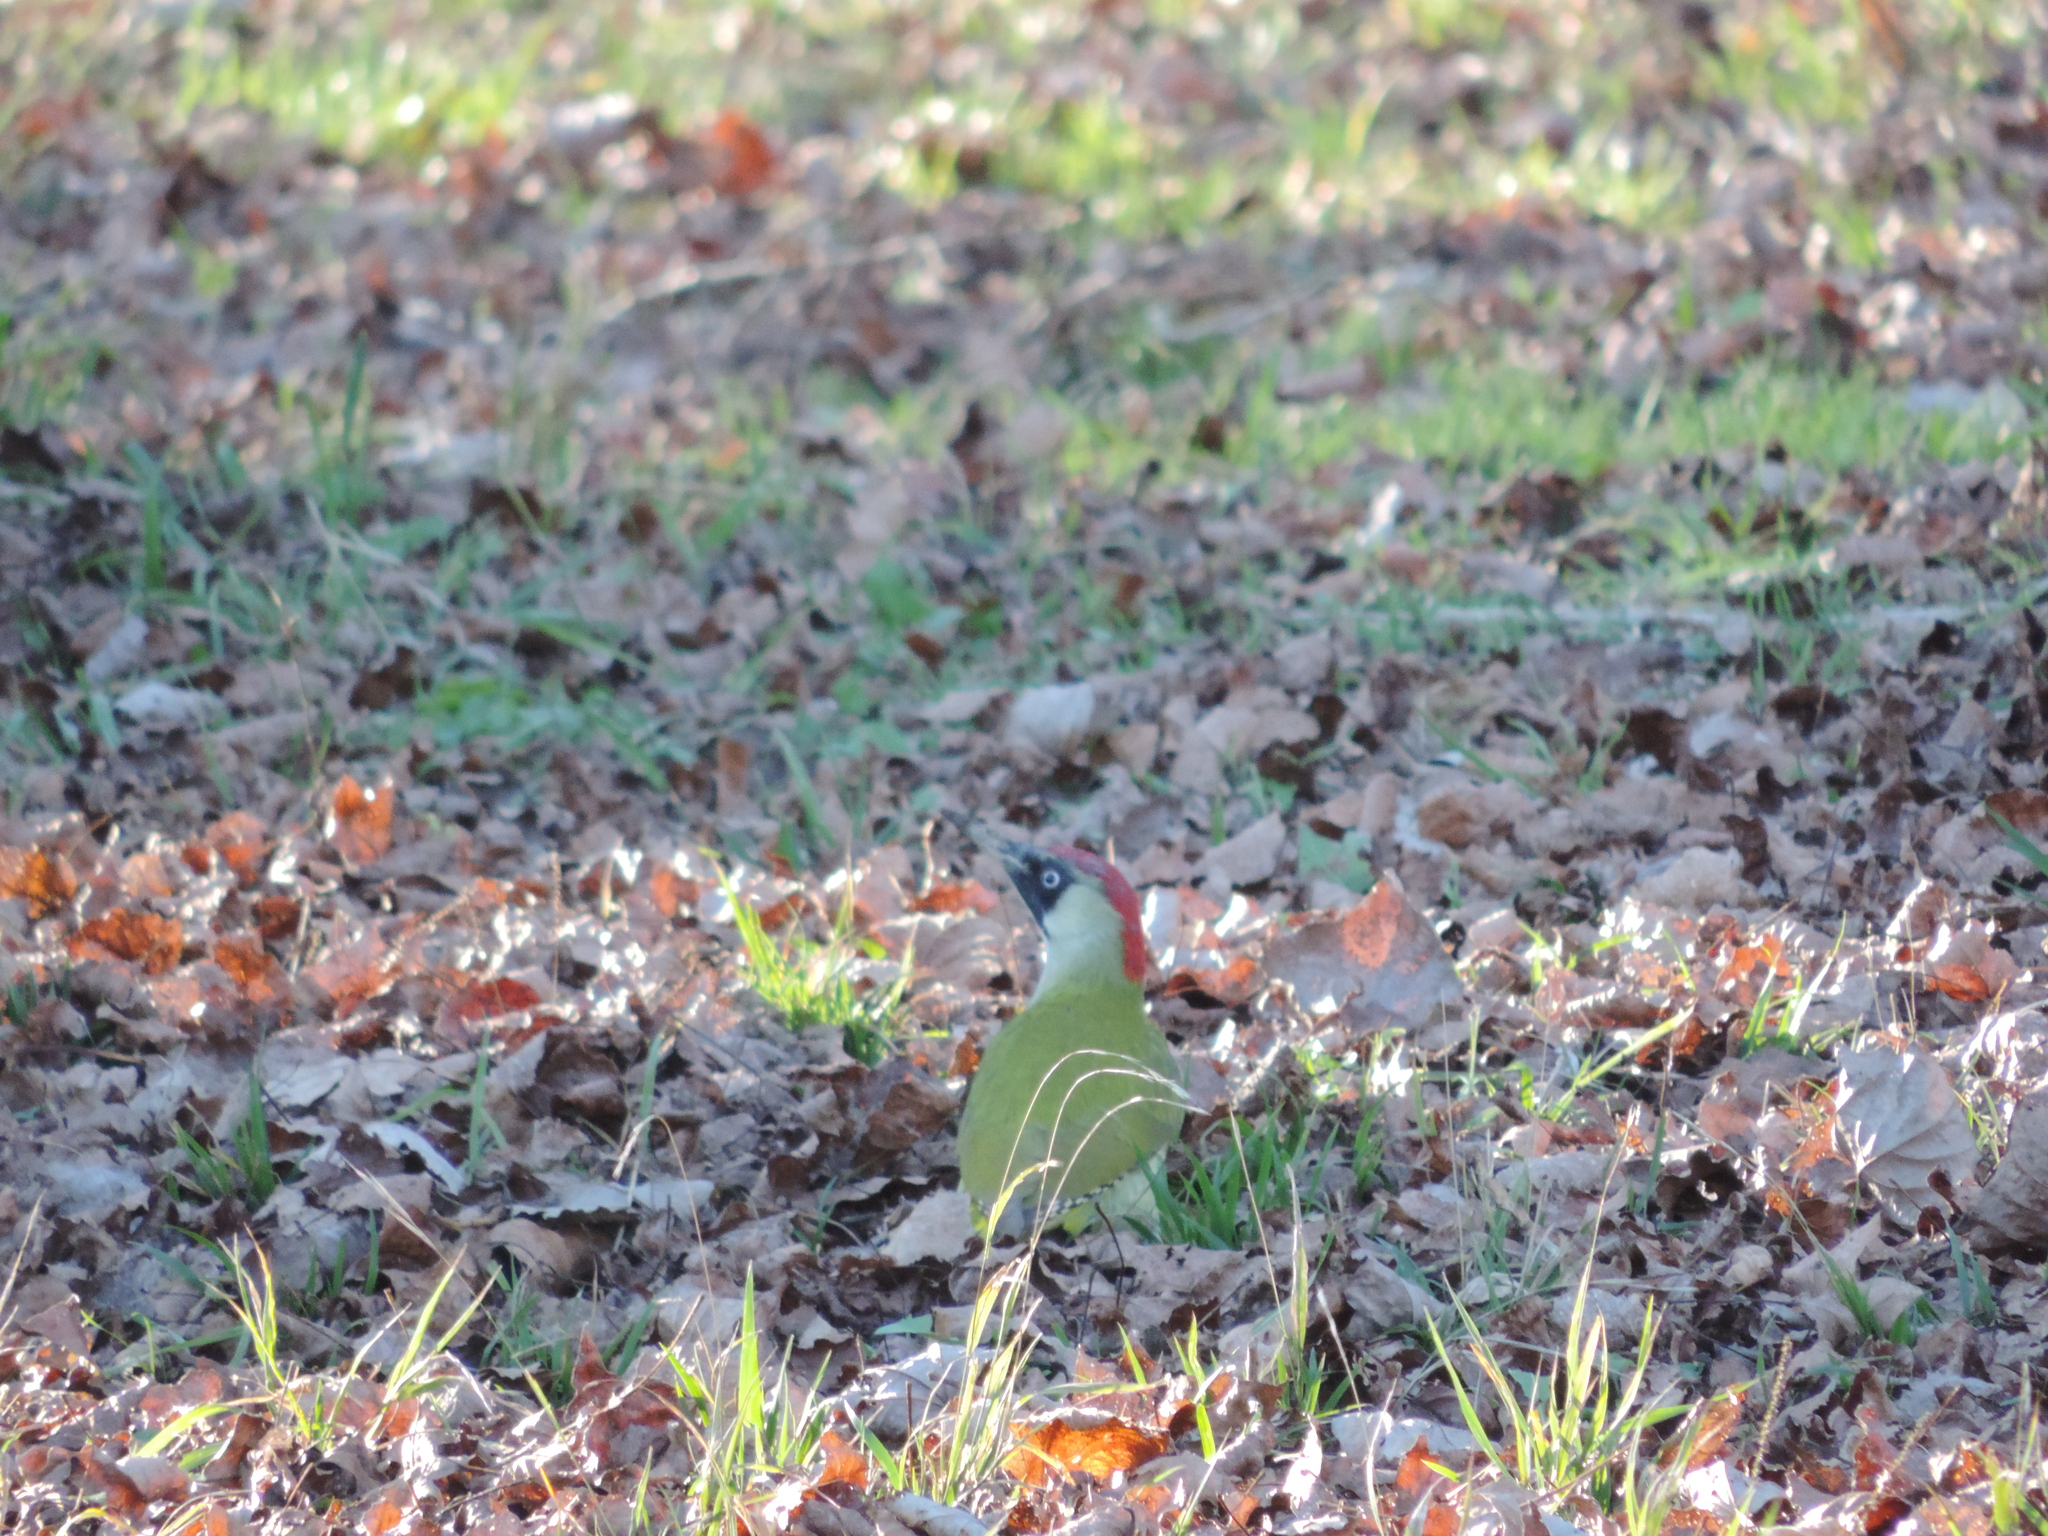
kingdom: Animalia
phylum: Chordata
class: Aves
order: Piciformes
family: Picidae
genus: Picus
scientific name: Picus viridis
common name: European green woodpecker
